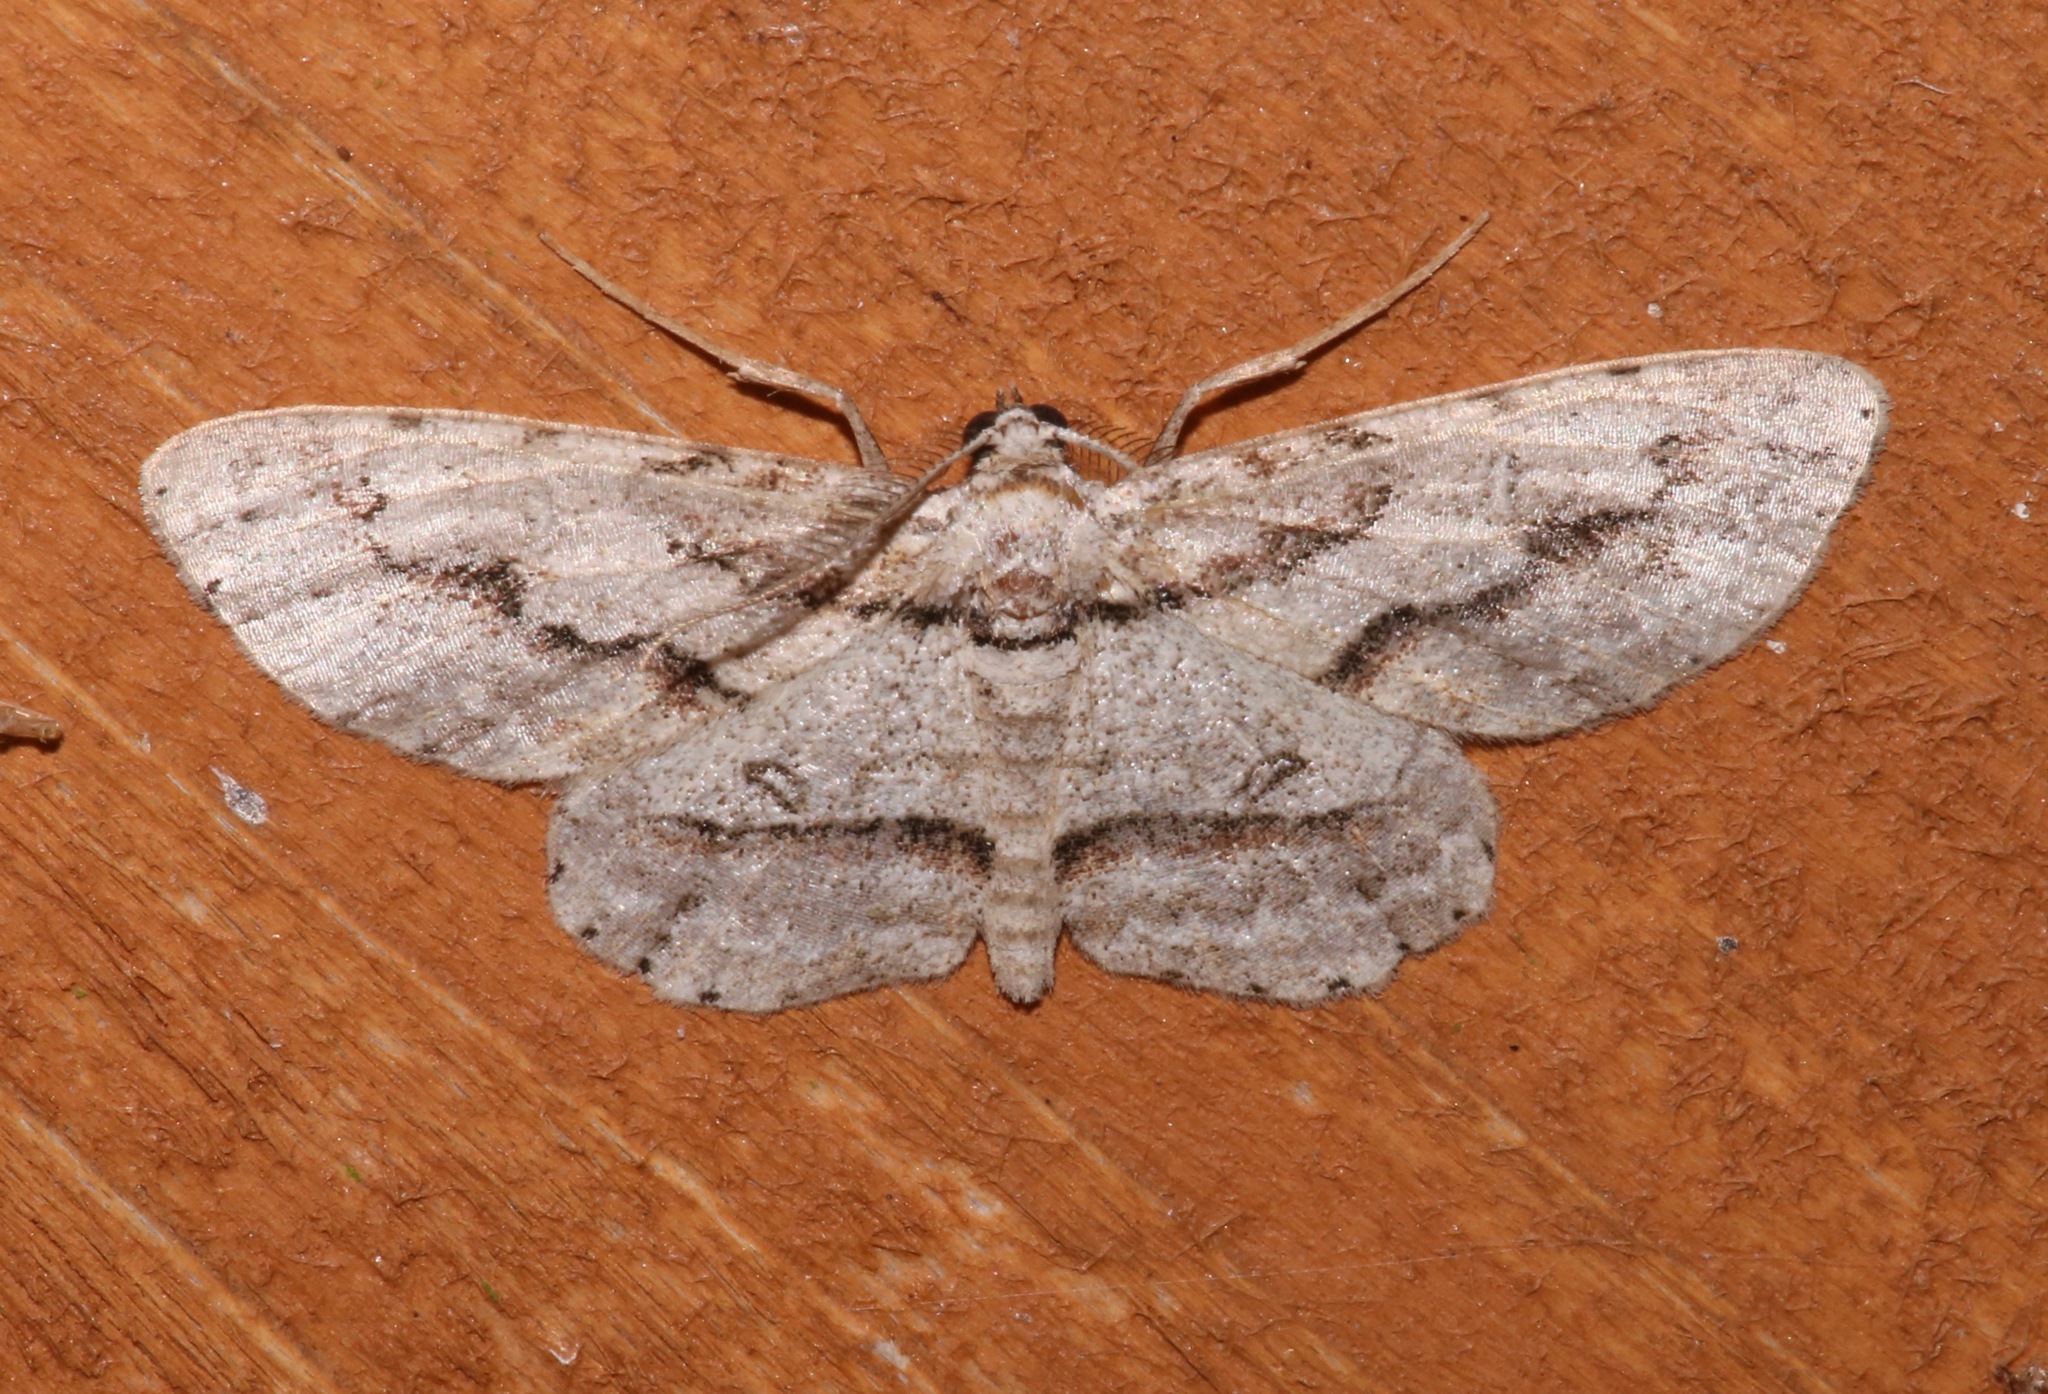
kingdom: Animalia
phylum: Arthropoda
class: Insecta
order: Lepidoptera
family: Geometridae
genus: Iridopsis
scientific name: Iridopsis pergracilis
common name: Cypress looper
